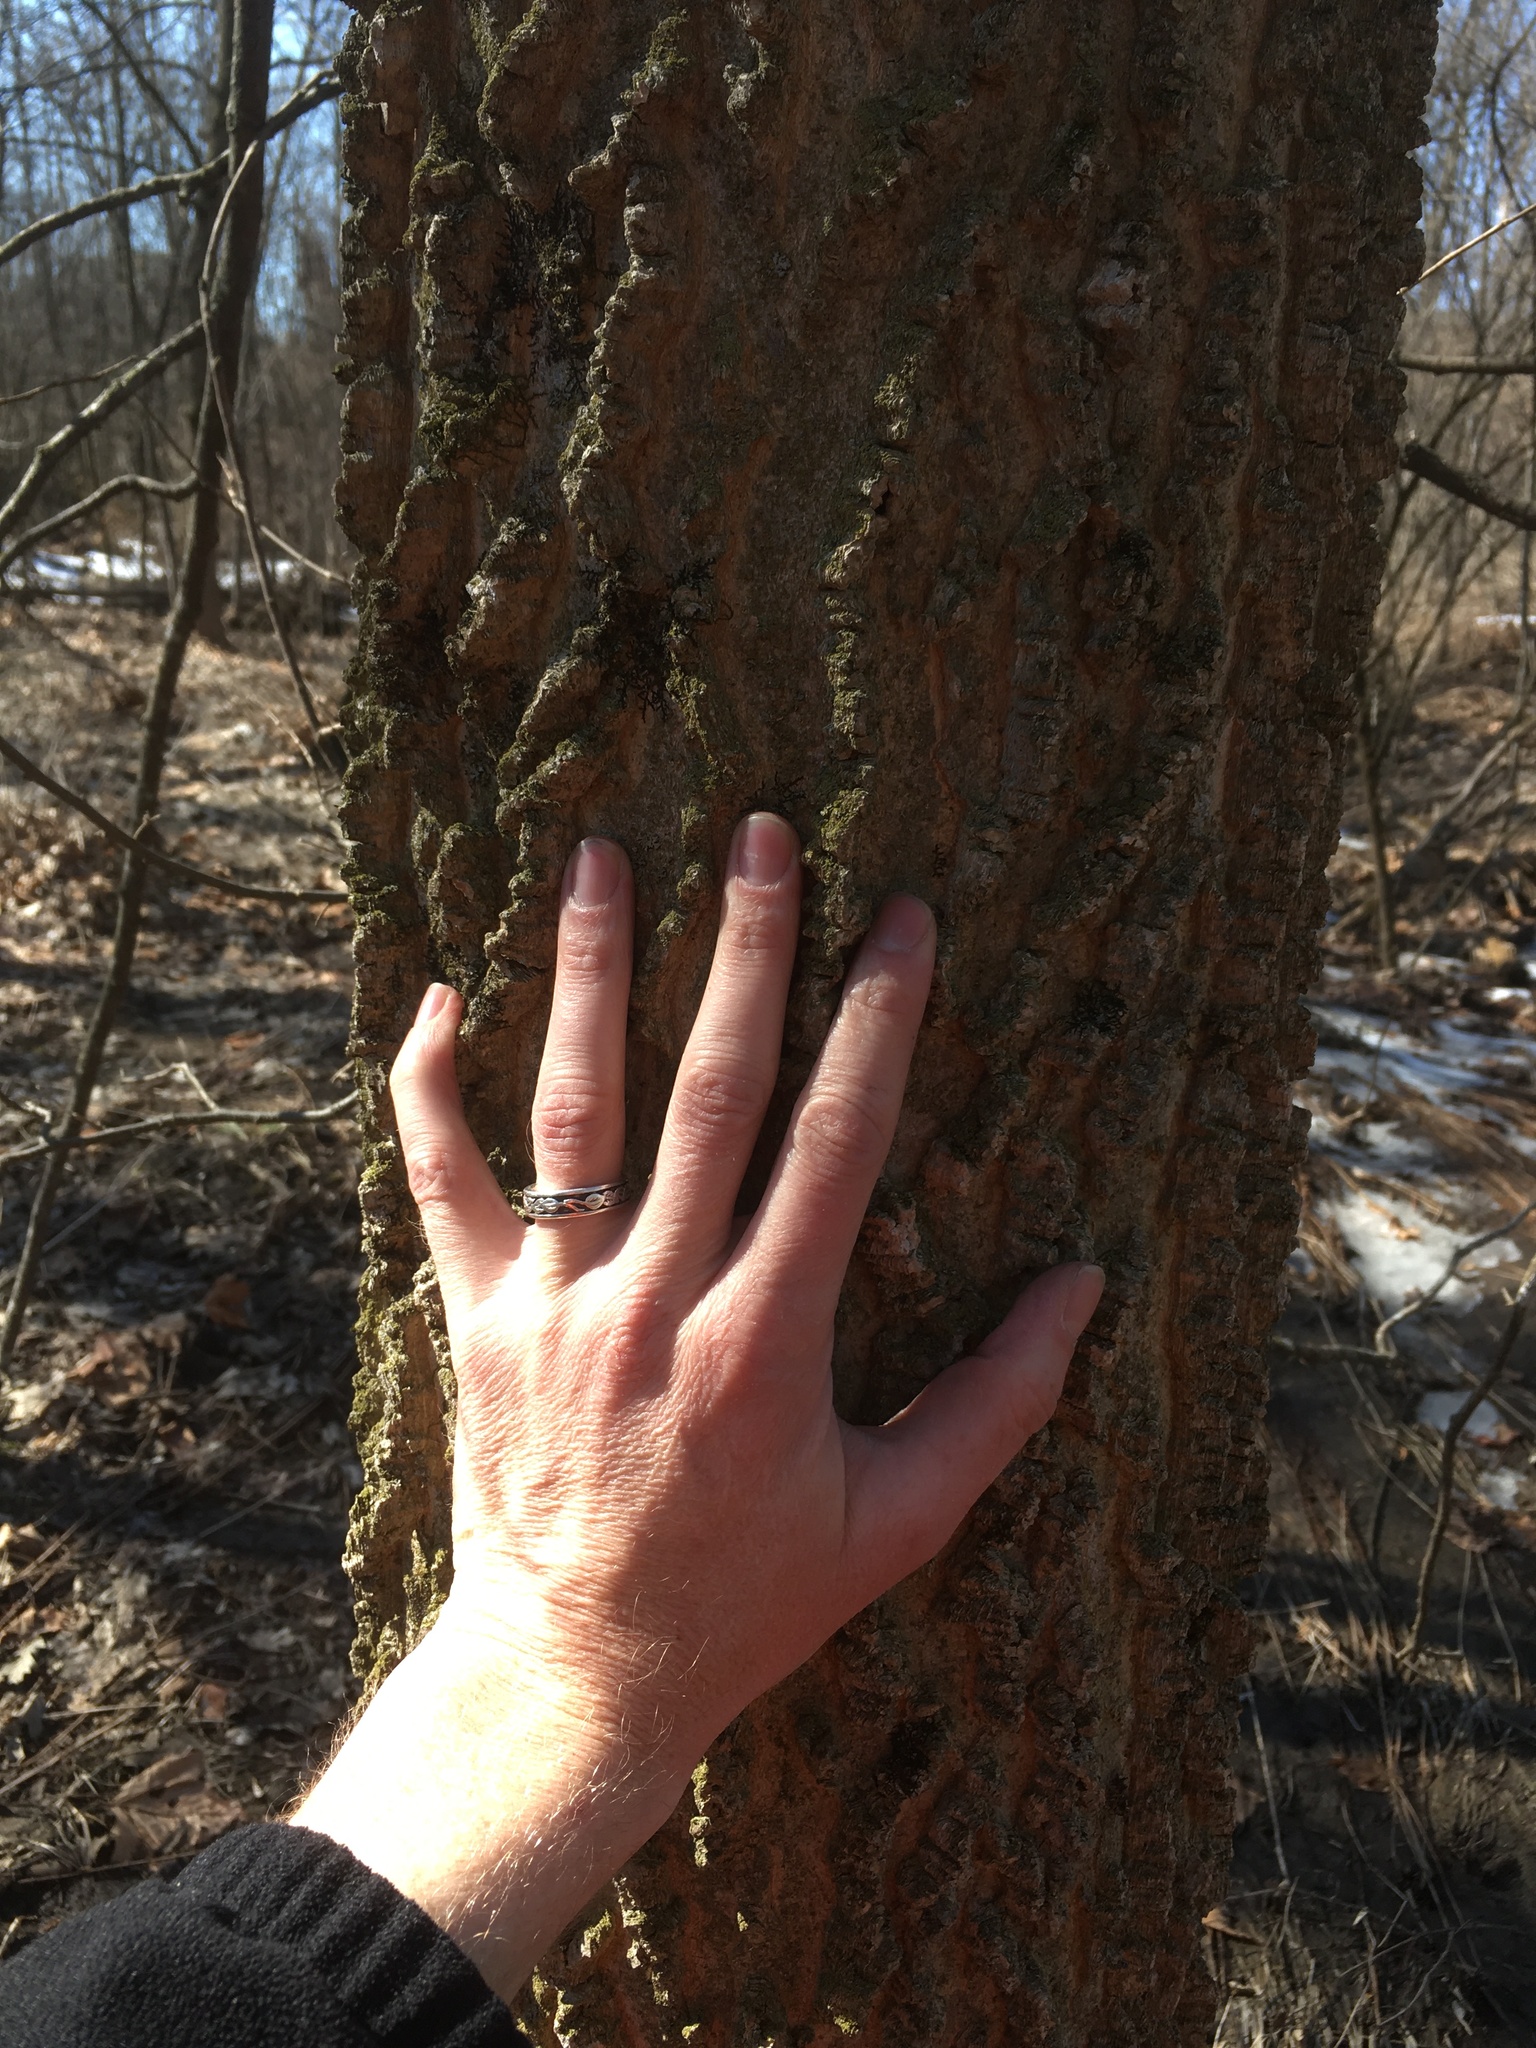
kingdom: Plantae
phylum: Tracheophyta
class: Magnoliopsida
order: Rosales
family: Cannabaceae
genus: Celtis
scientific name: Celtis occidentalis
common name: Common hackberry
